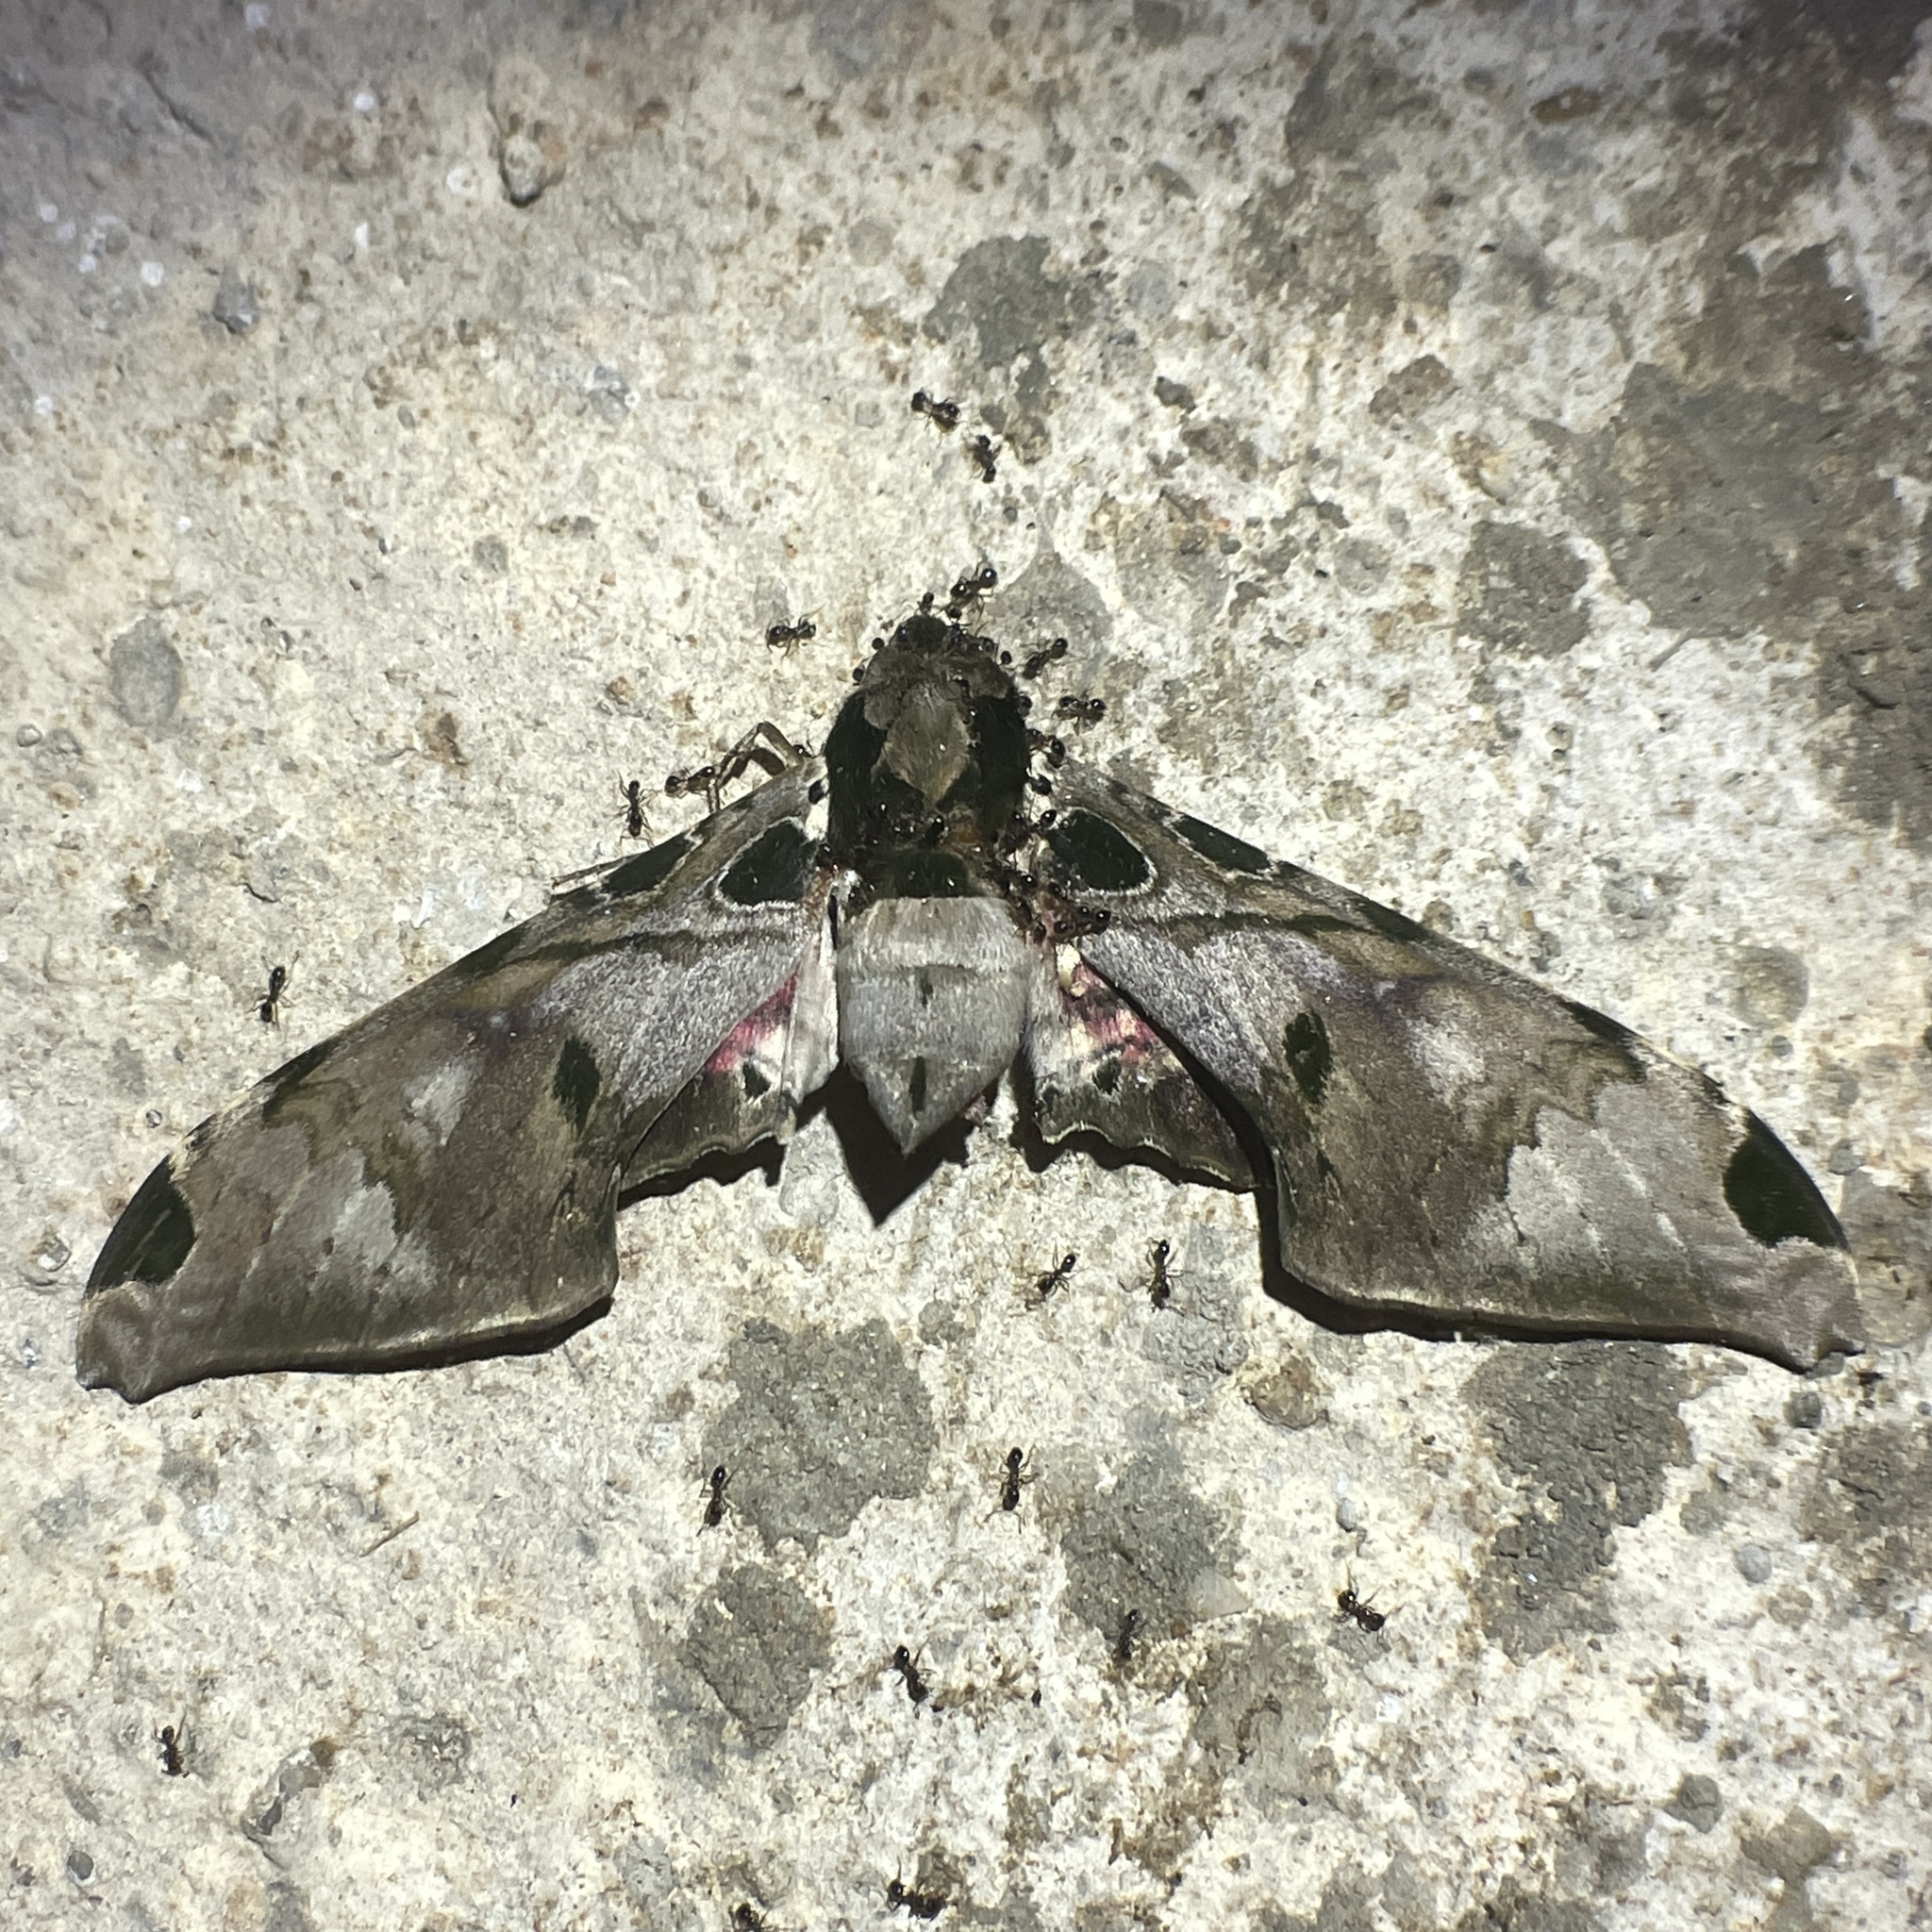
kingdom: Animalia
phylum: Arthropoda
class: Insecta
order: Lepidoptera
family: Sphingidae
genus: Adhemarius
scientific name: Adhemarius palmeri
